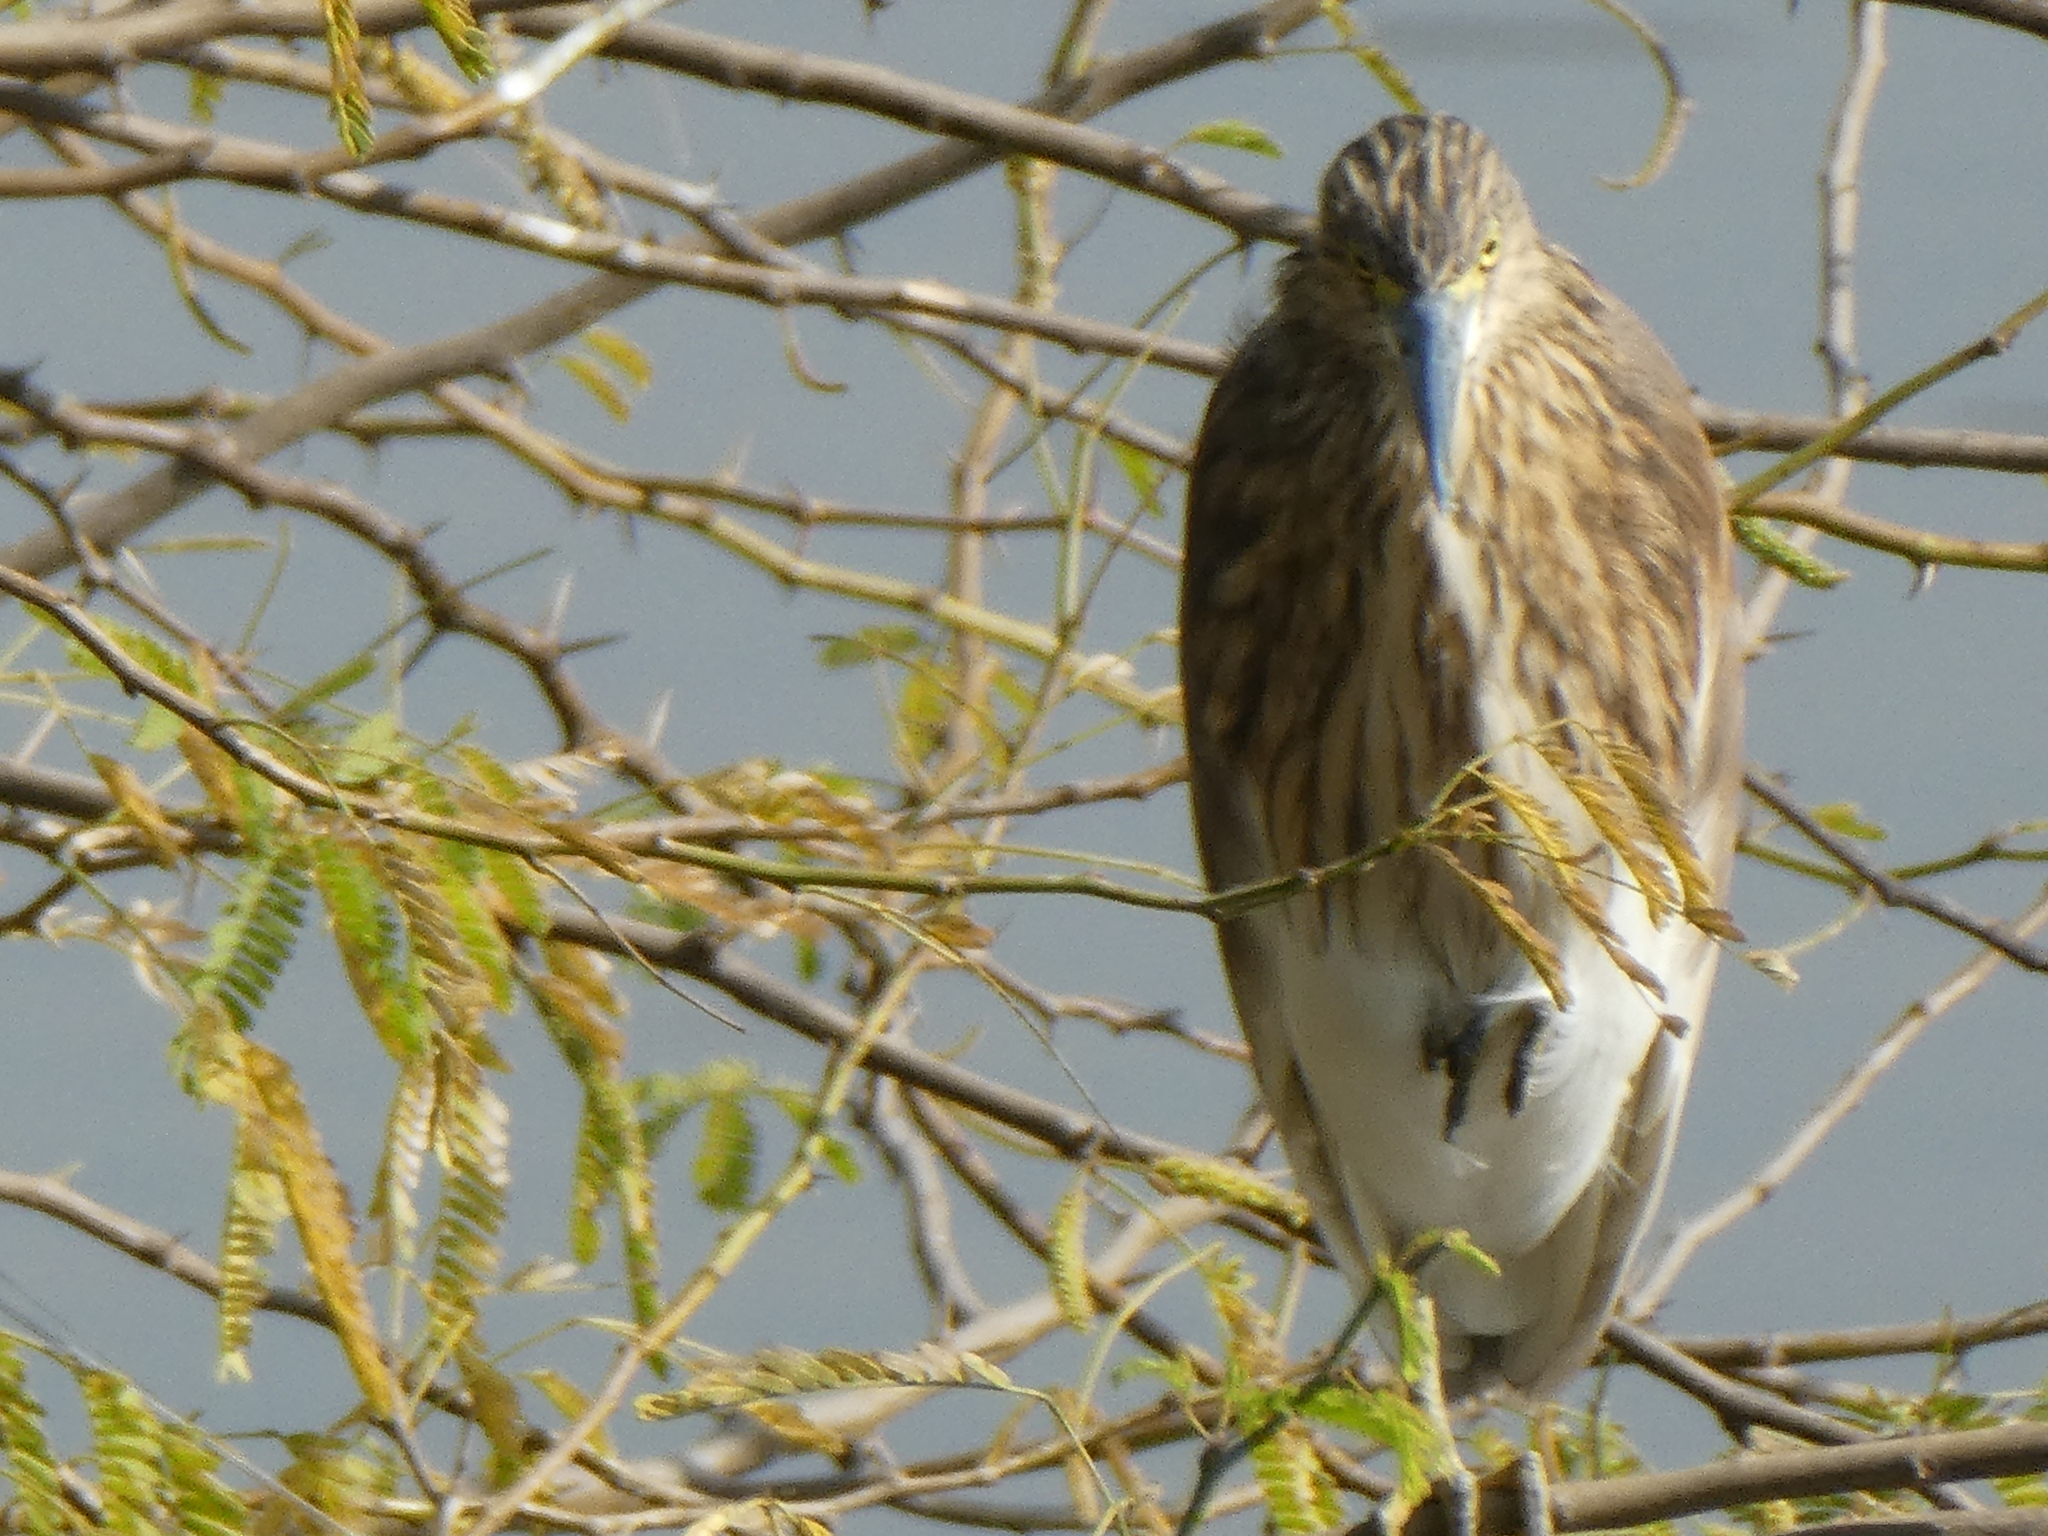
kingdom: Animalia
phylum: Chordata
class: Aves
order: Pelecaniformes
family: Ardeidae
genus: Ardeola
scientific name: Ardeola grayii
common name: Indian pond heron
